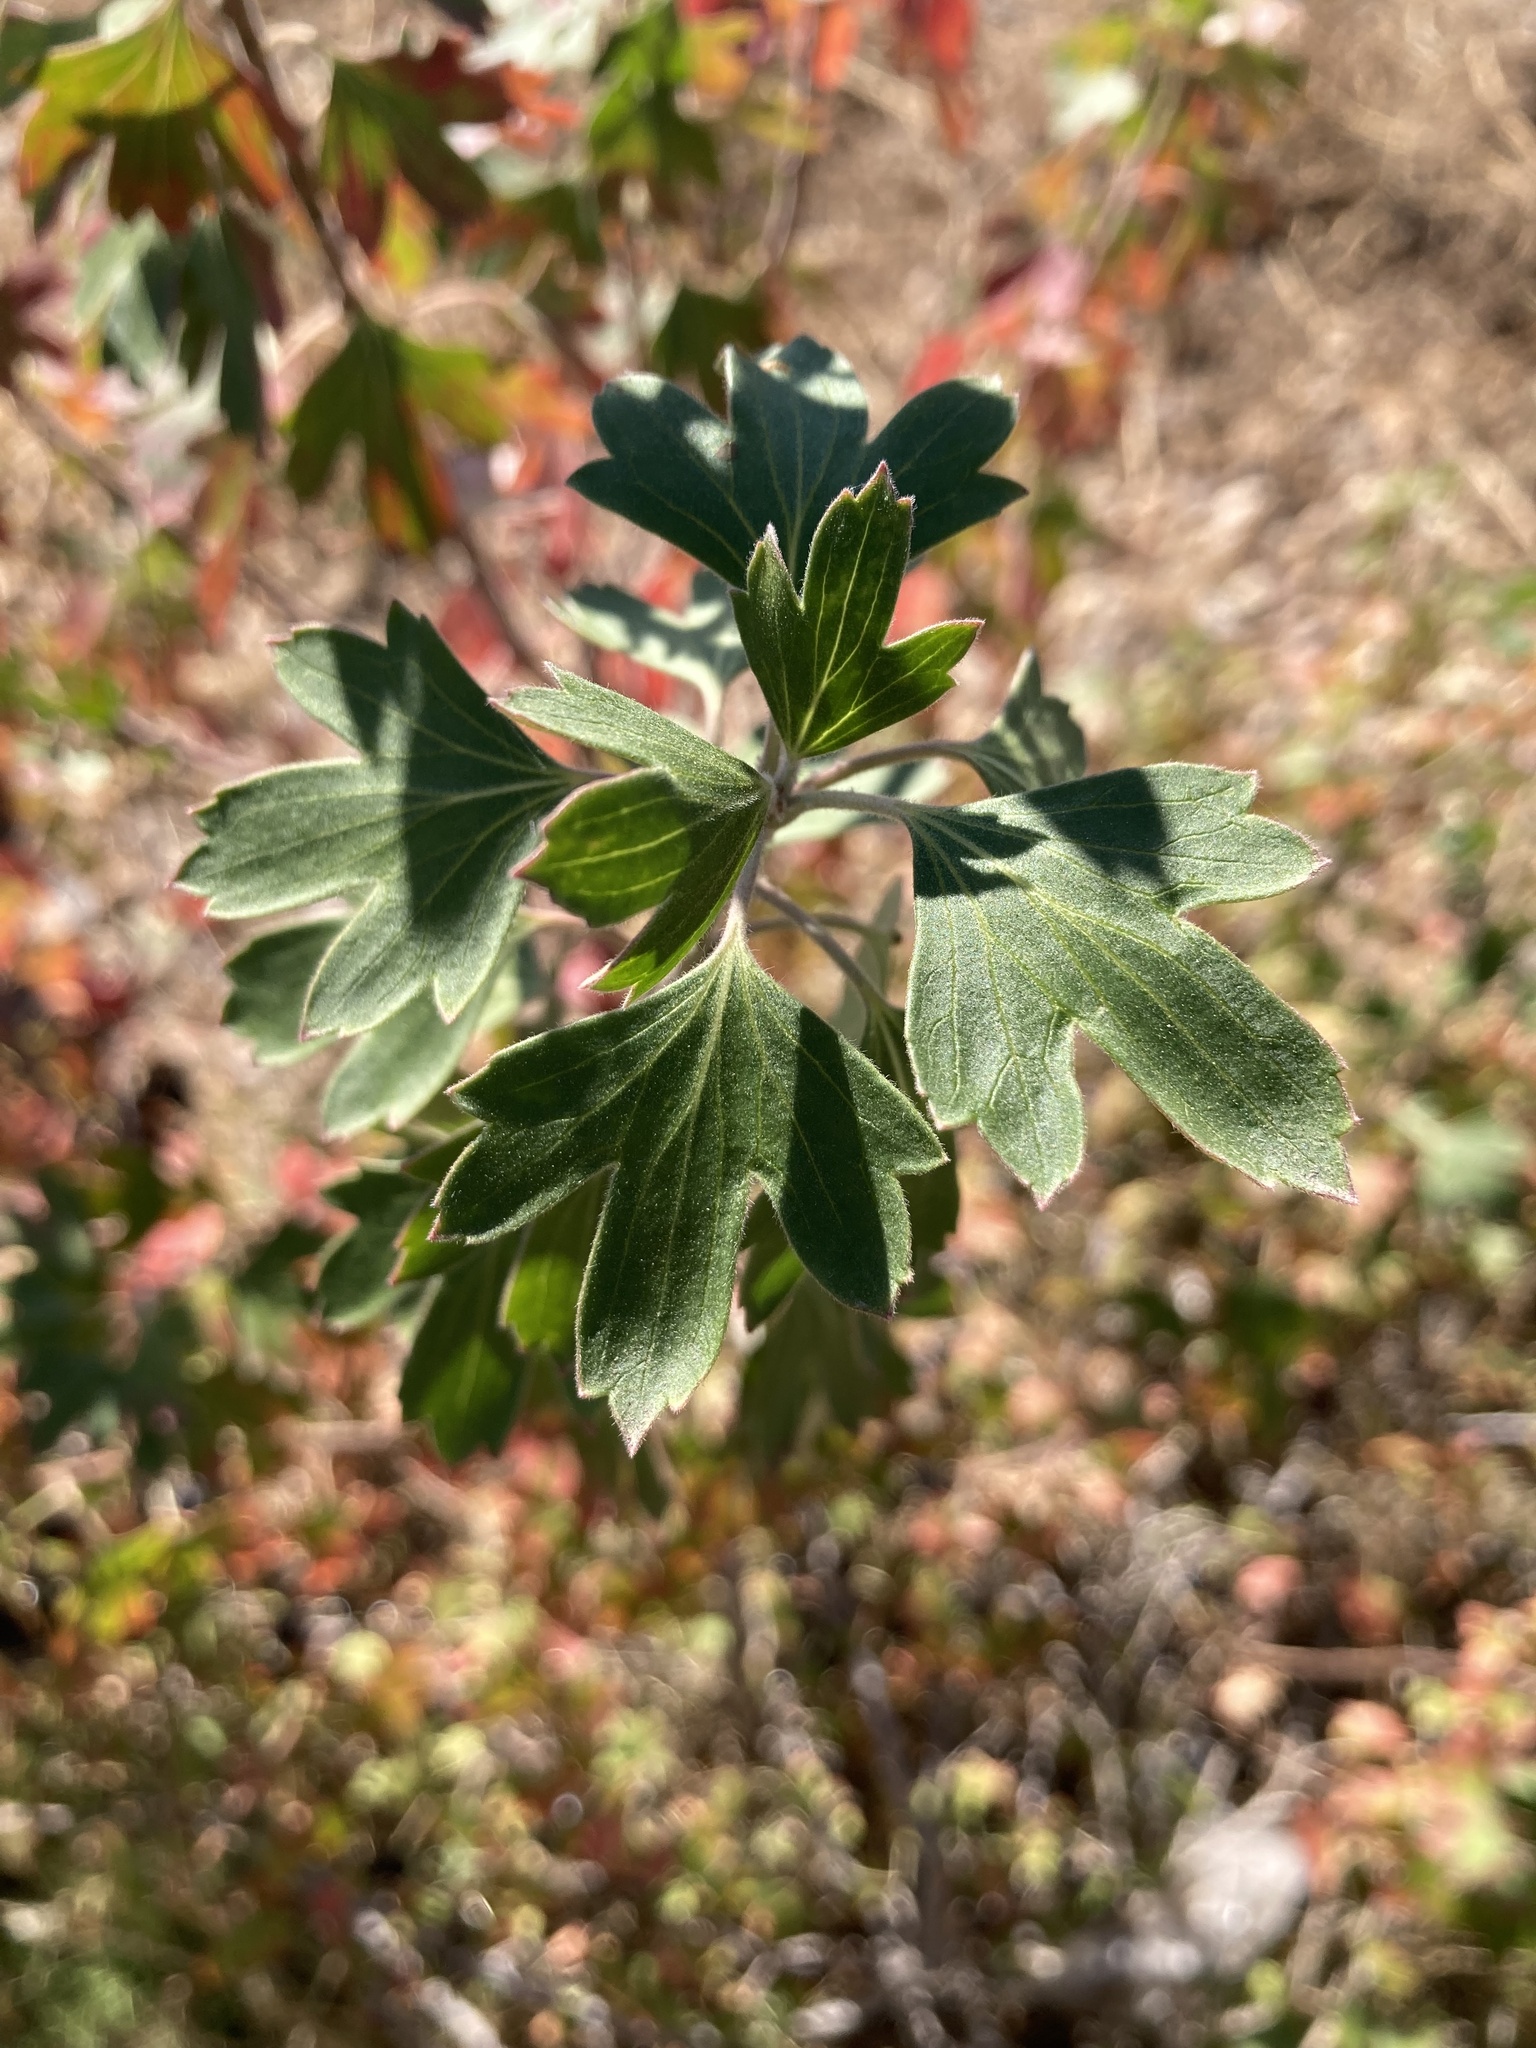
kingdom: Plantae
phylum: Tracheophyta
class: Magnoliopsida
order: Saxifragales
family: Grossulariaceae
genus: Ribes
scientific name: Ribes aureum
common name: Golden currant
